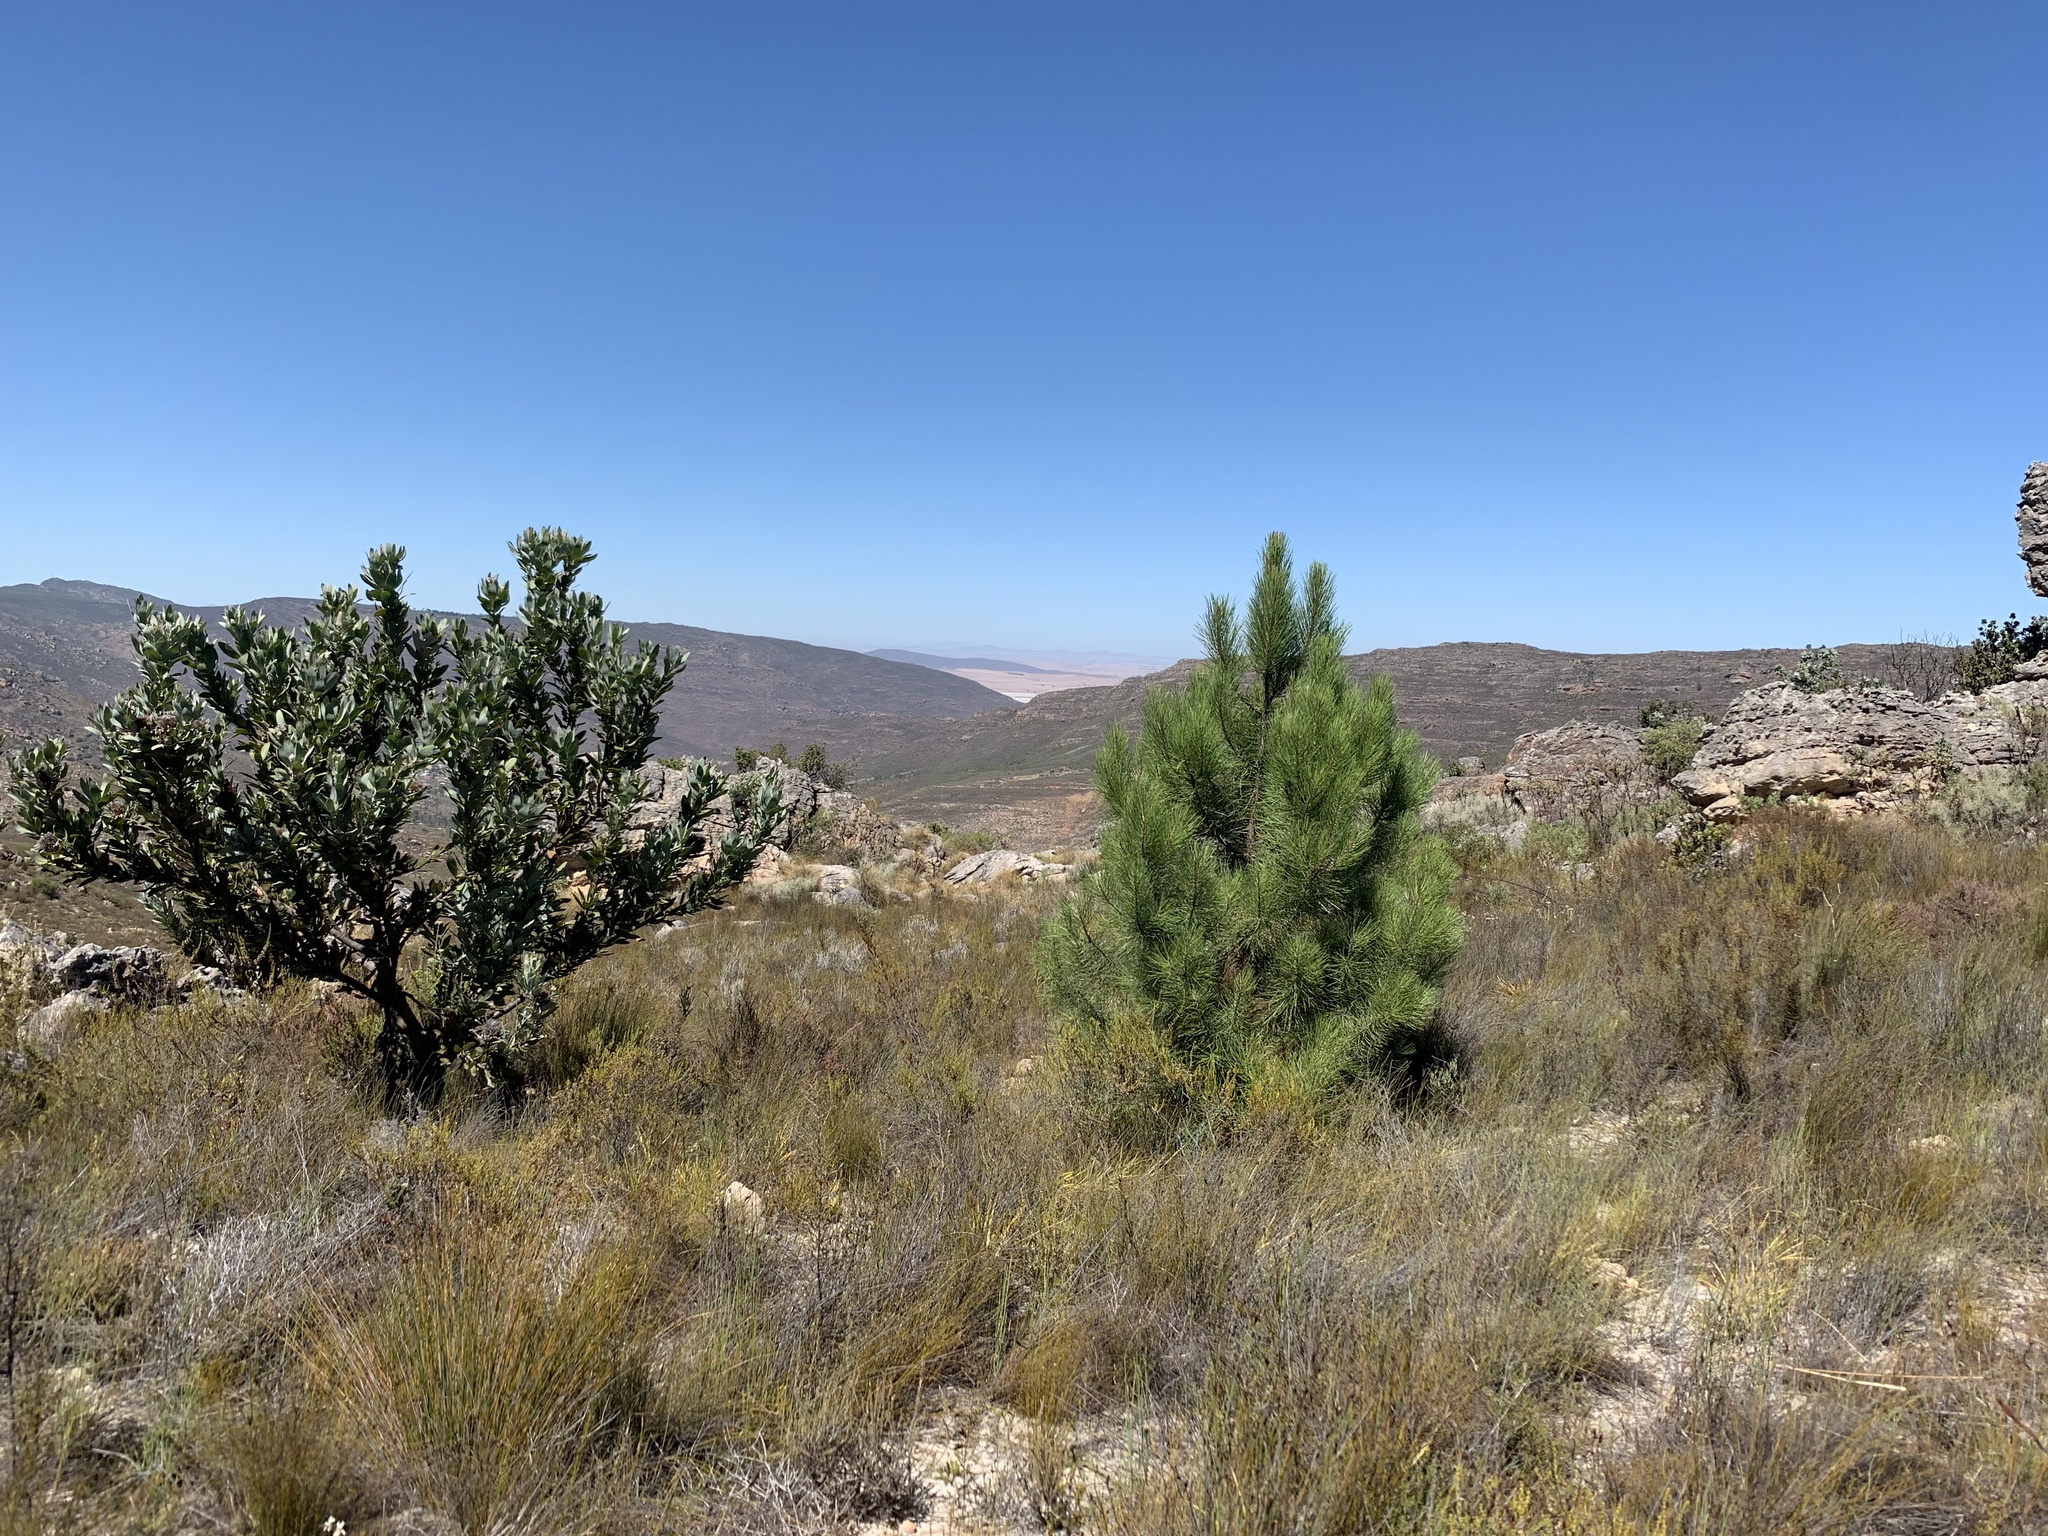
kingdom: Plantae
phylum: Tracheophyta
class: Pinopsida
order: Pinales
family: Pinaceae
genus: Pinus
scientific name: Pinus pinaster
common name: Maritime pine
